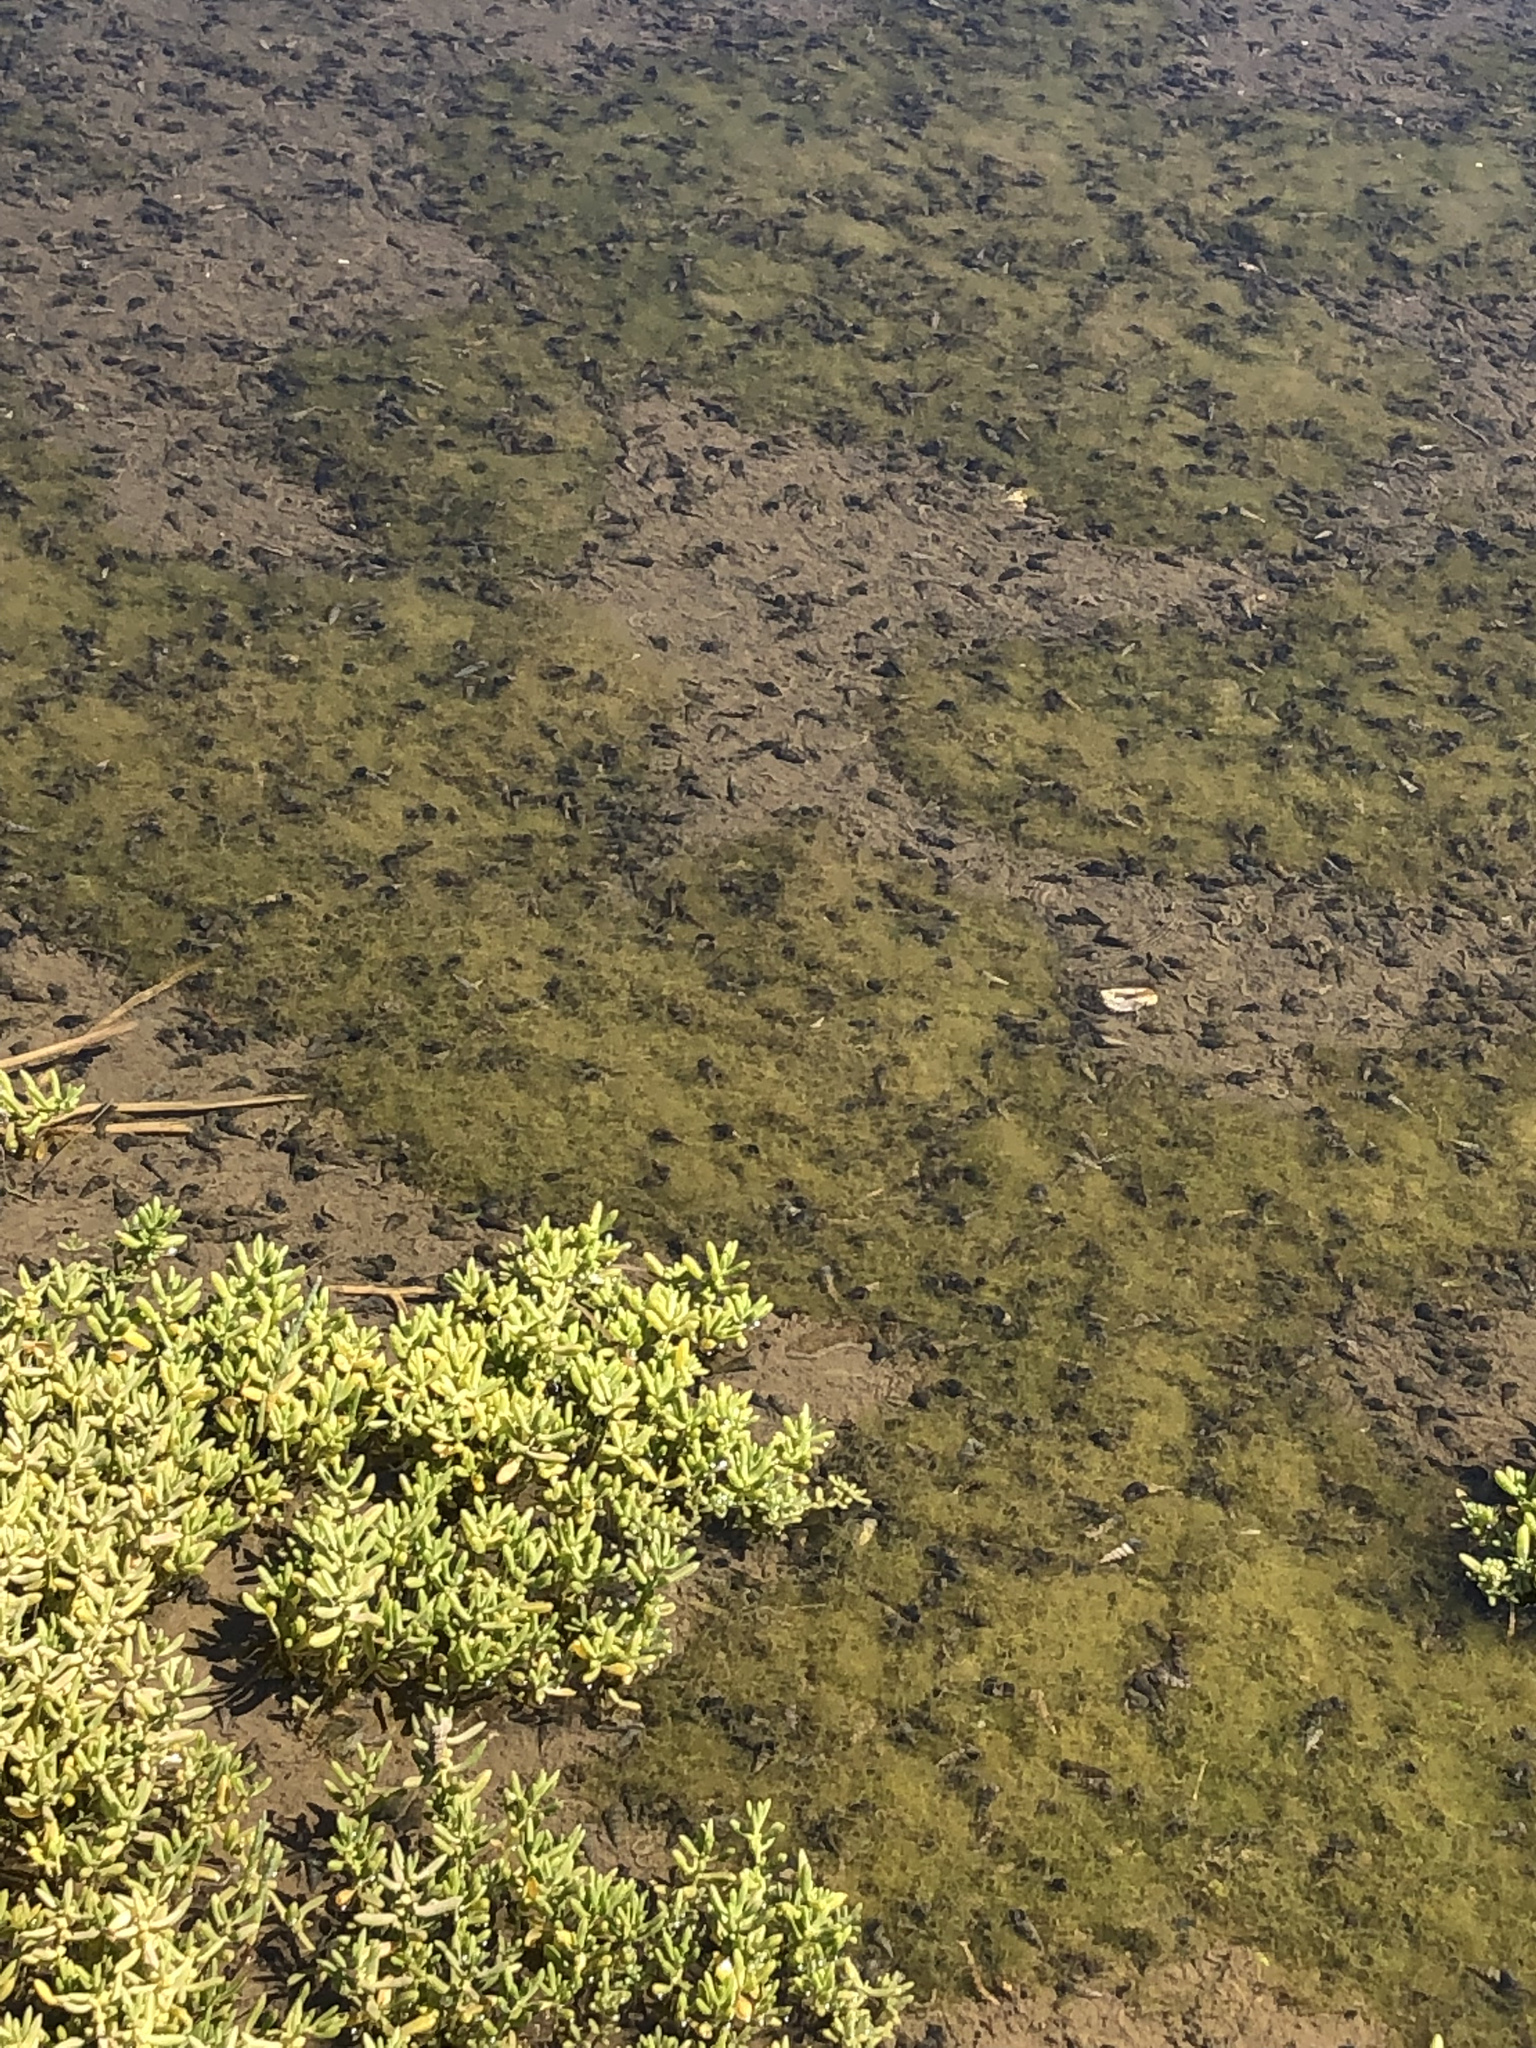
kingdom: Animalia
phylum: Mollusca
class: Gastropoda
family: Potamididae
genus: Cerithideopsis
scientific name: Cerithideopsis californica
